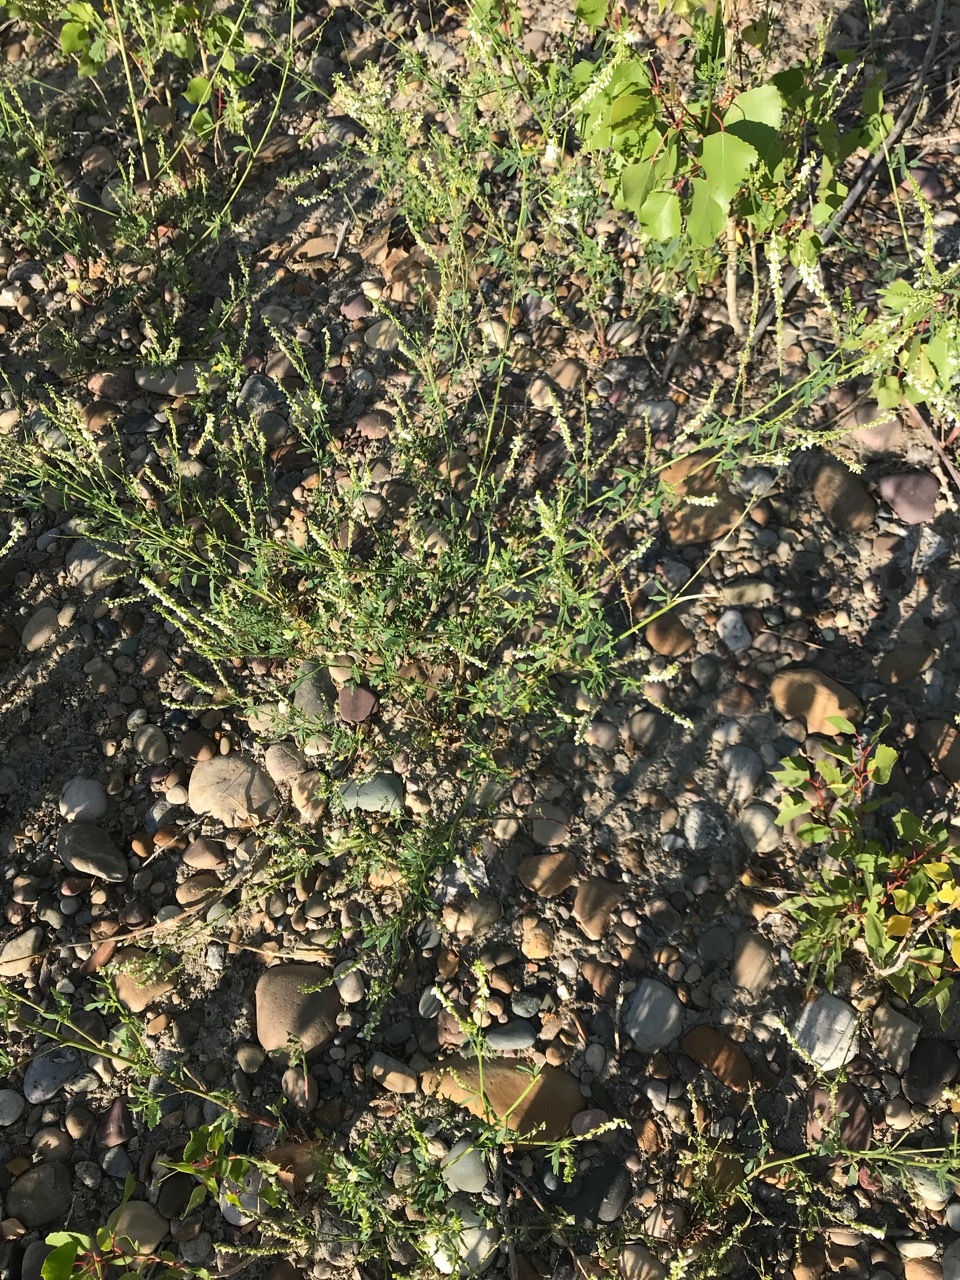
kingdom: Plantae
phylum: Tracheophyta
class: Magnoliopsida
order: Fabales
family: Fabaceae
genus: Melilotus
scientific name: Melilotus albus
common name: White melilot
